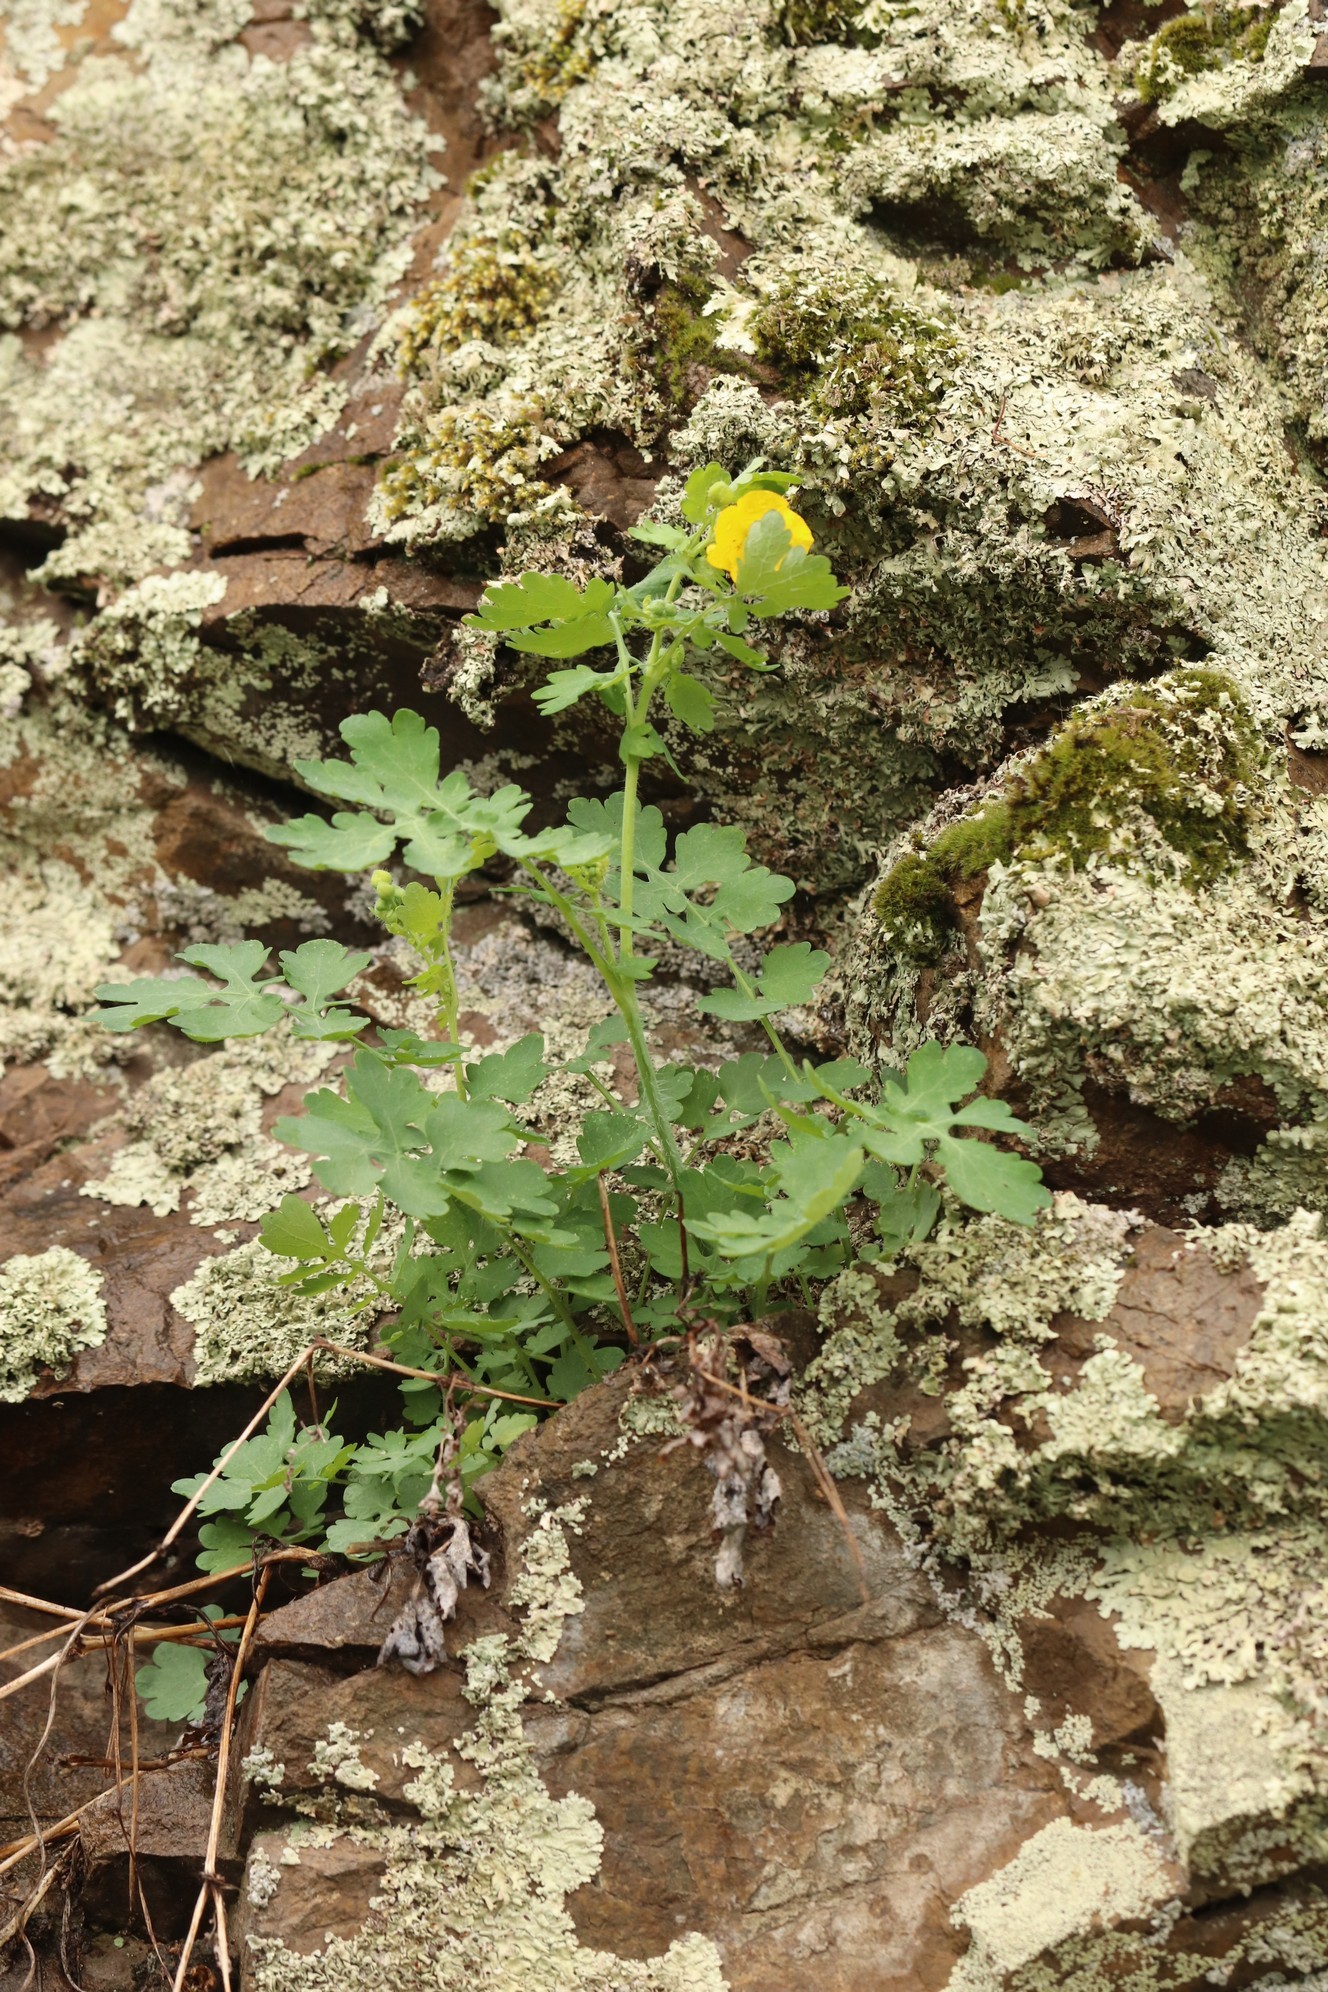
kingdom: Plantae
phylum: Tracheophyta
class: Magnoliopsida
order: Ranunculales
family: Papaveraceae
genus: Chelidonium
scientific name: Chelidonium majus
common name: Greater celandine
